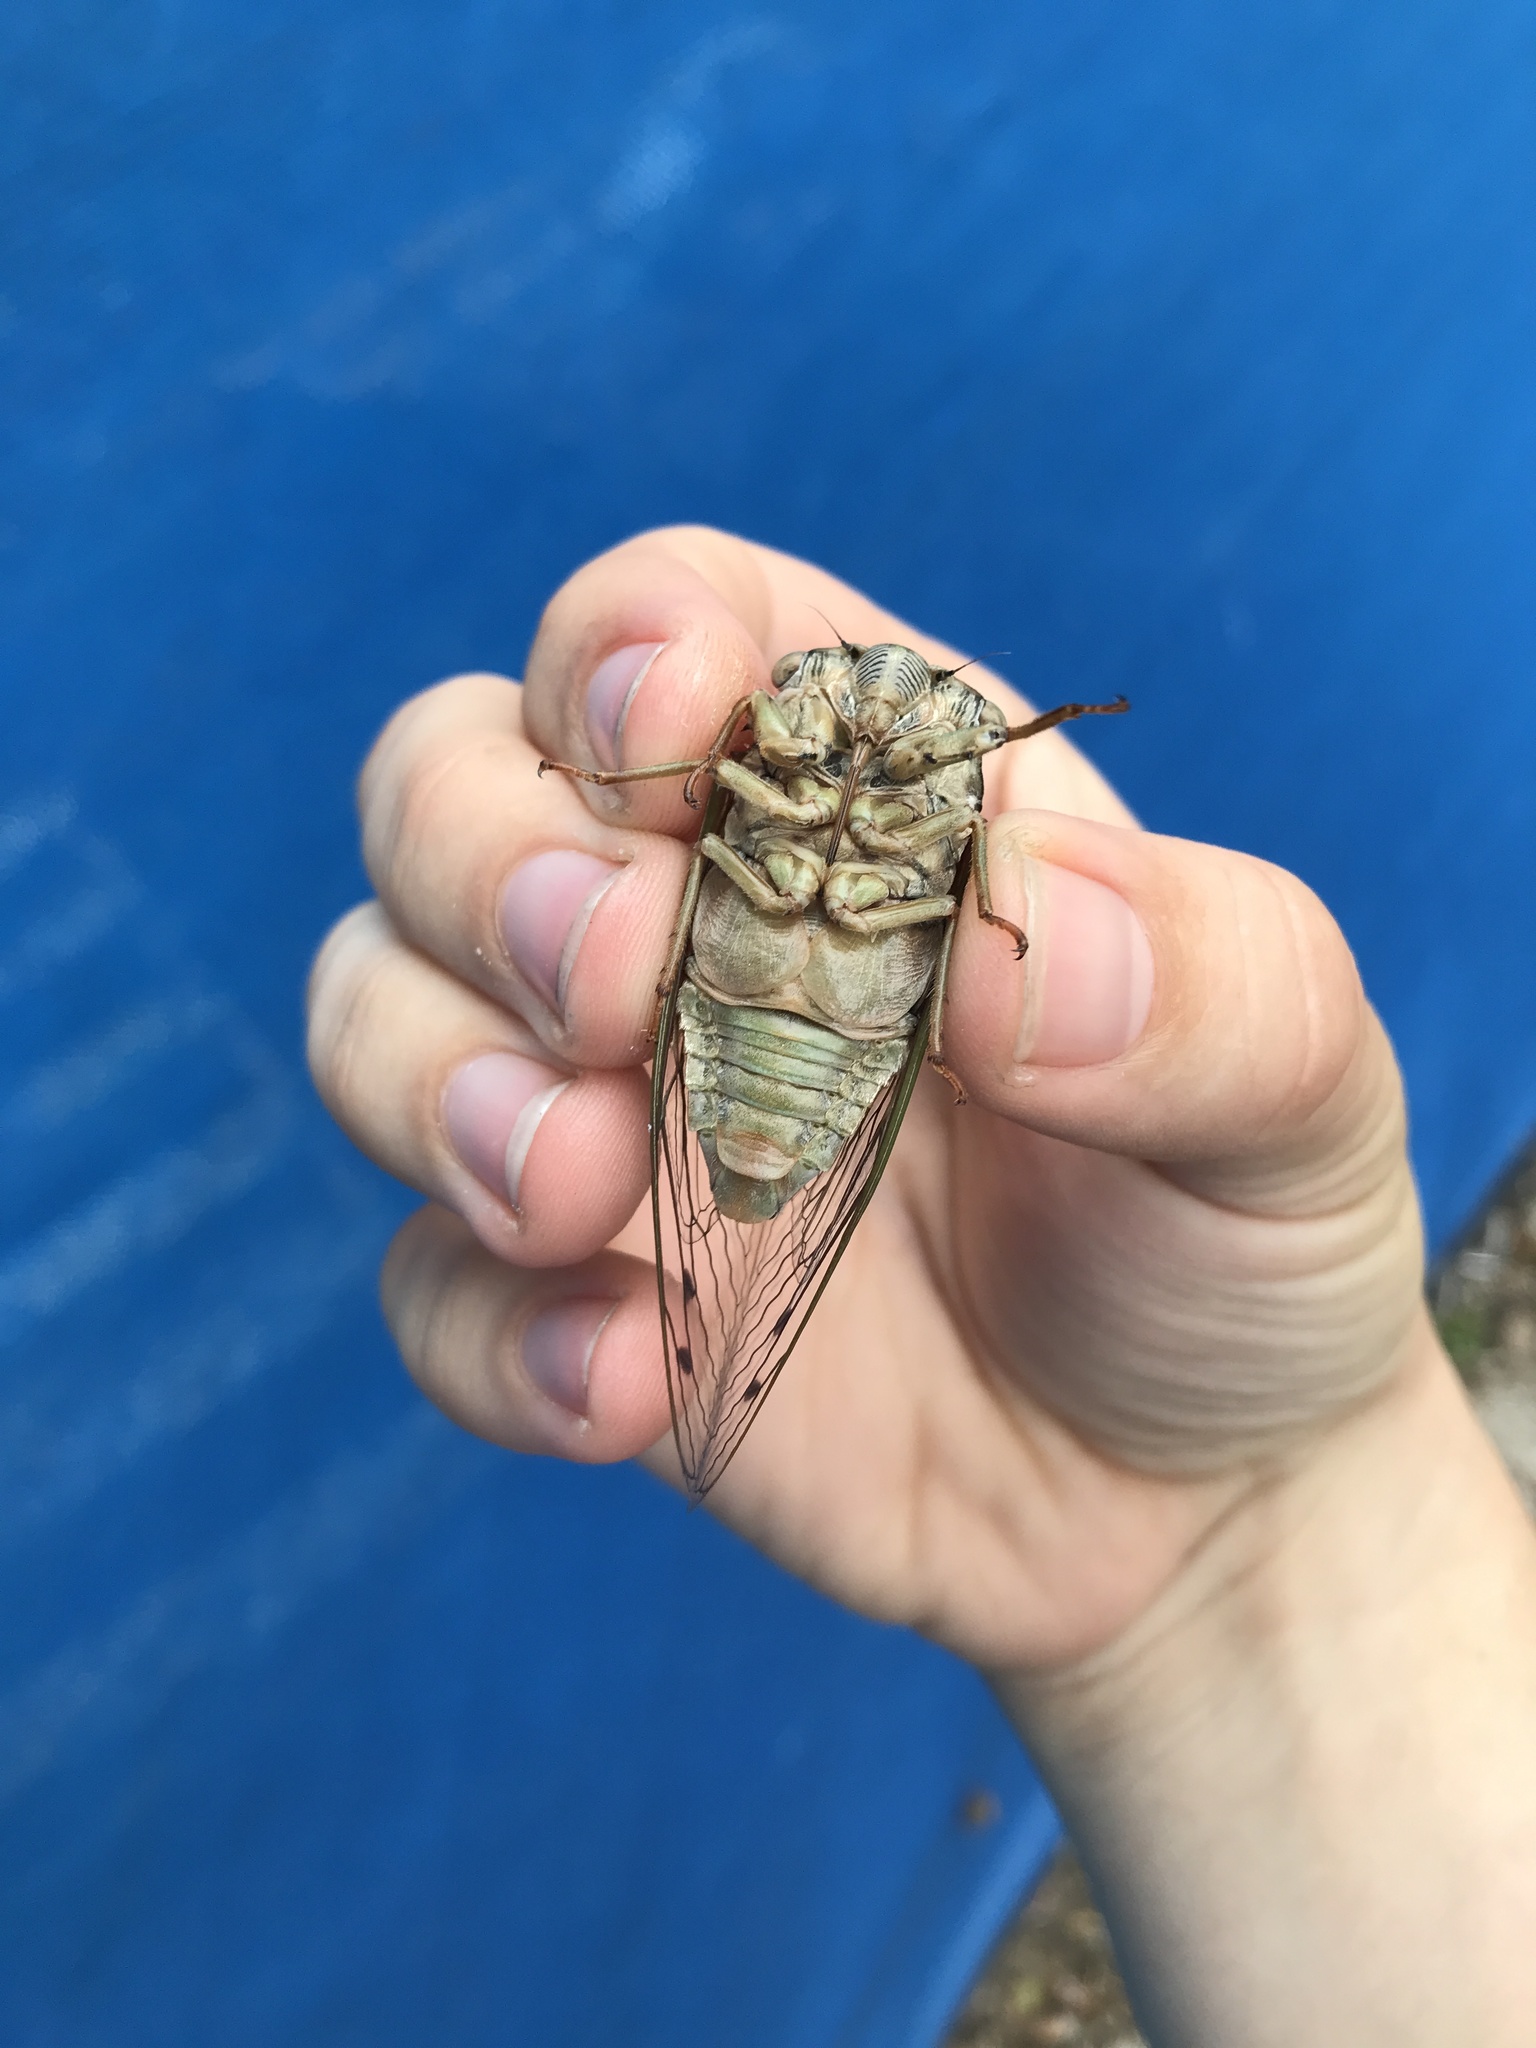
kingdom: Animalia
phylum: Arthropoda
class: Insecta
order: Hemiptera
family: Cicadidae
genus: Megatibicen
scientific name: Megatibicen resh
